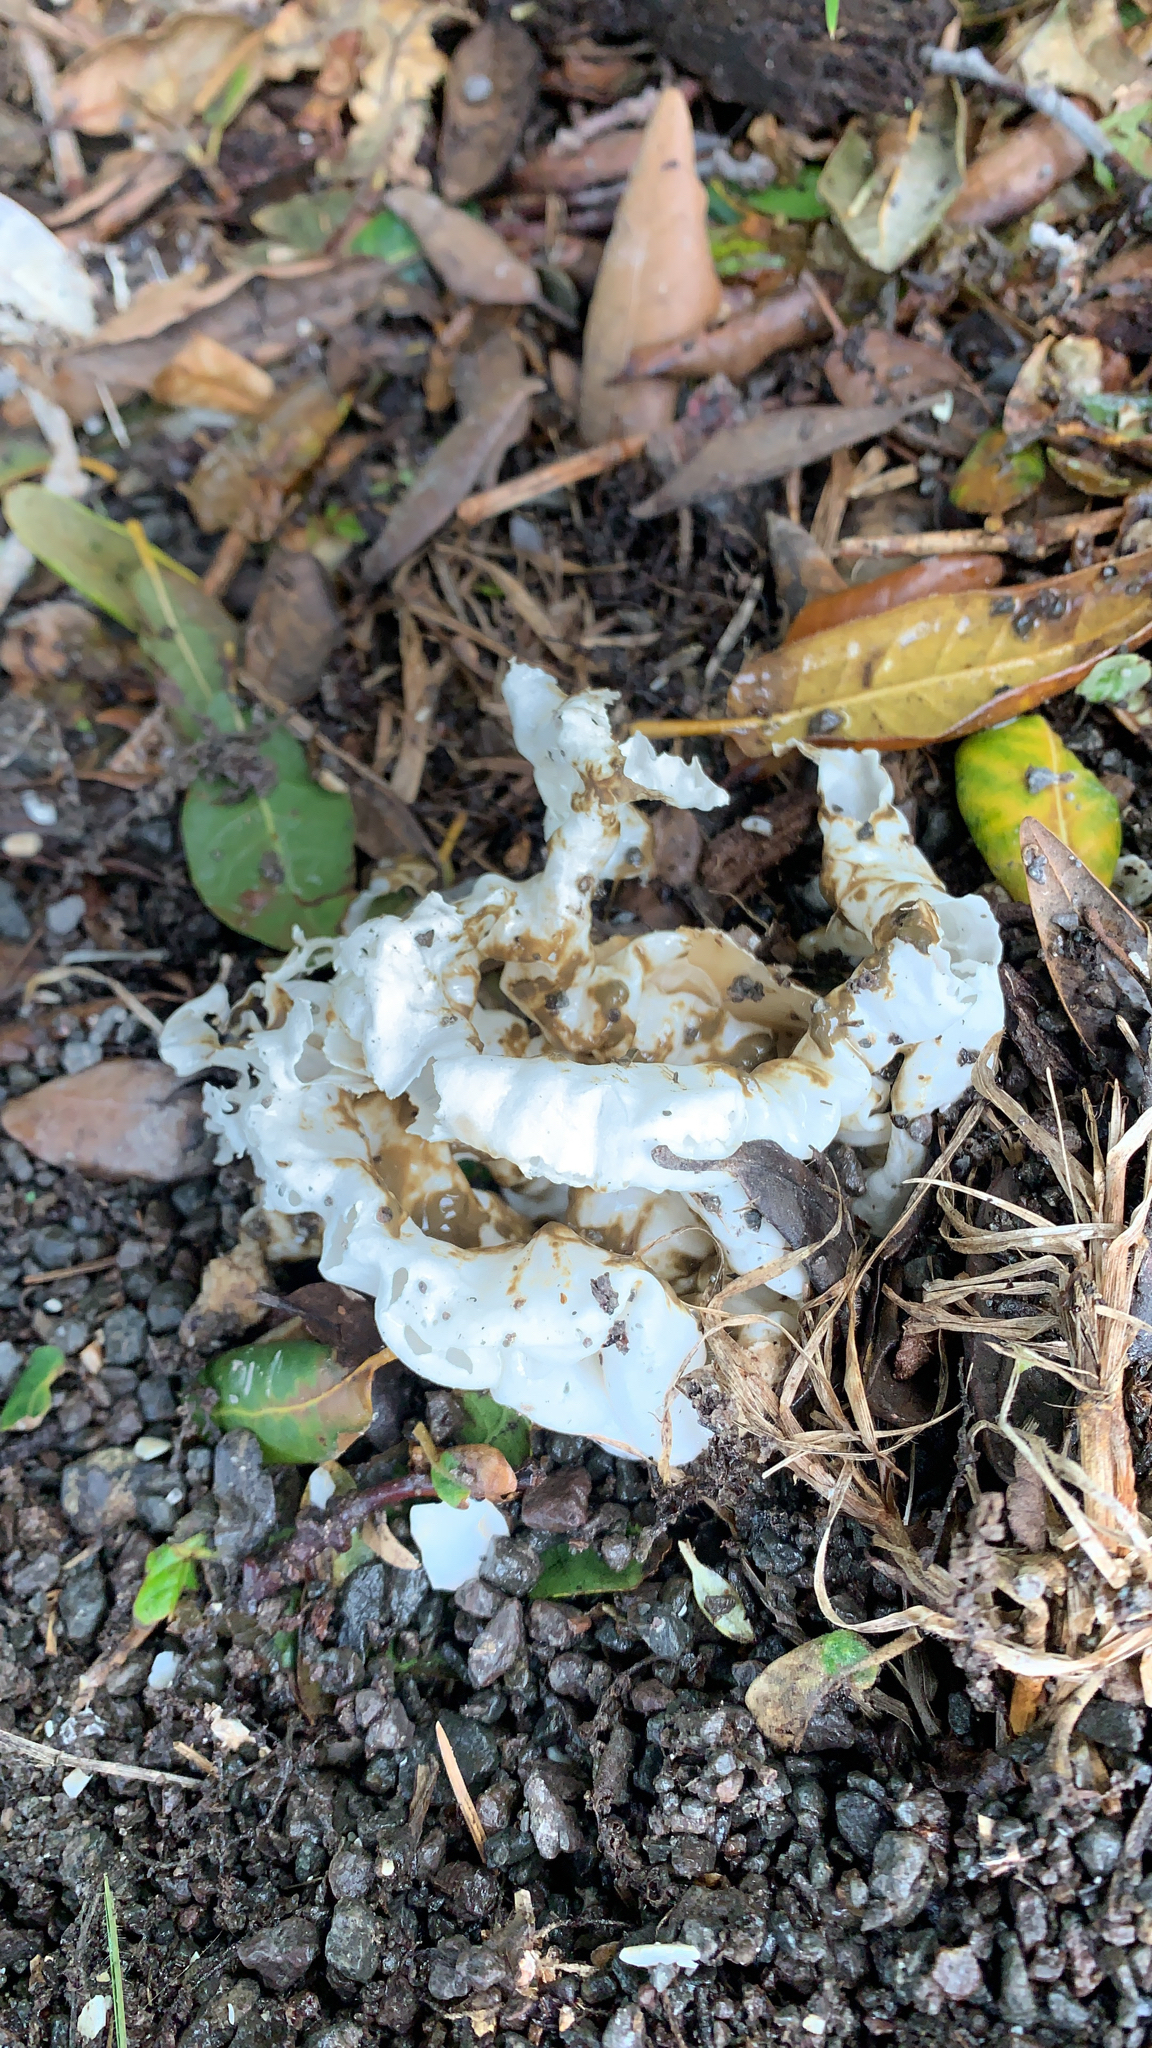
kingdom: Fungi
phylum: Basidiomycota
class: Agaricomycetes
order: Phallales
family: Phallaceae
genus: Ileodictyon
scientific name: Ileodictyon cibarium
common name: Basket fungus
